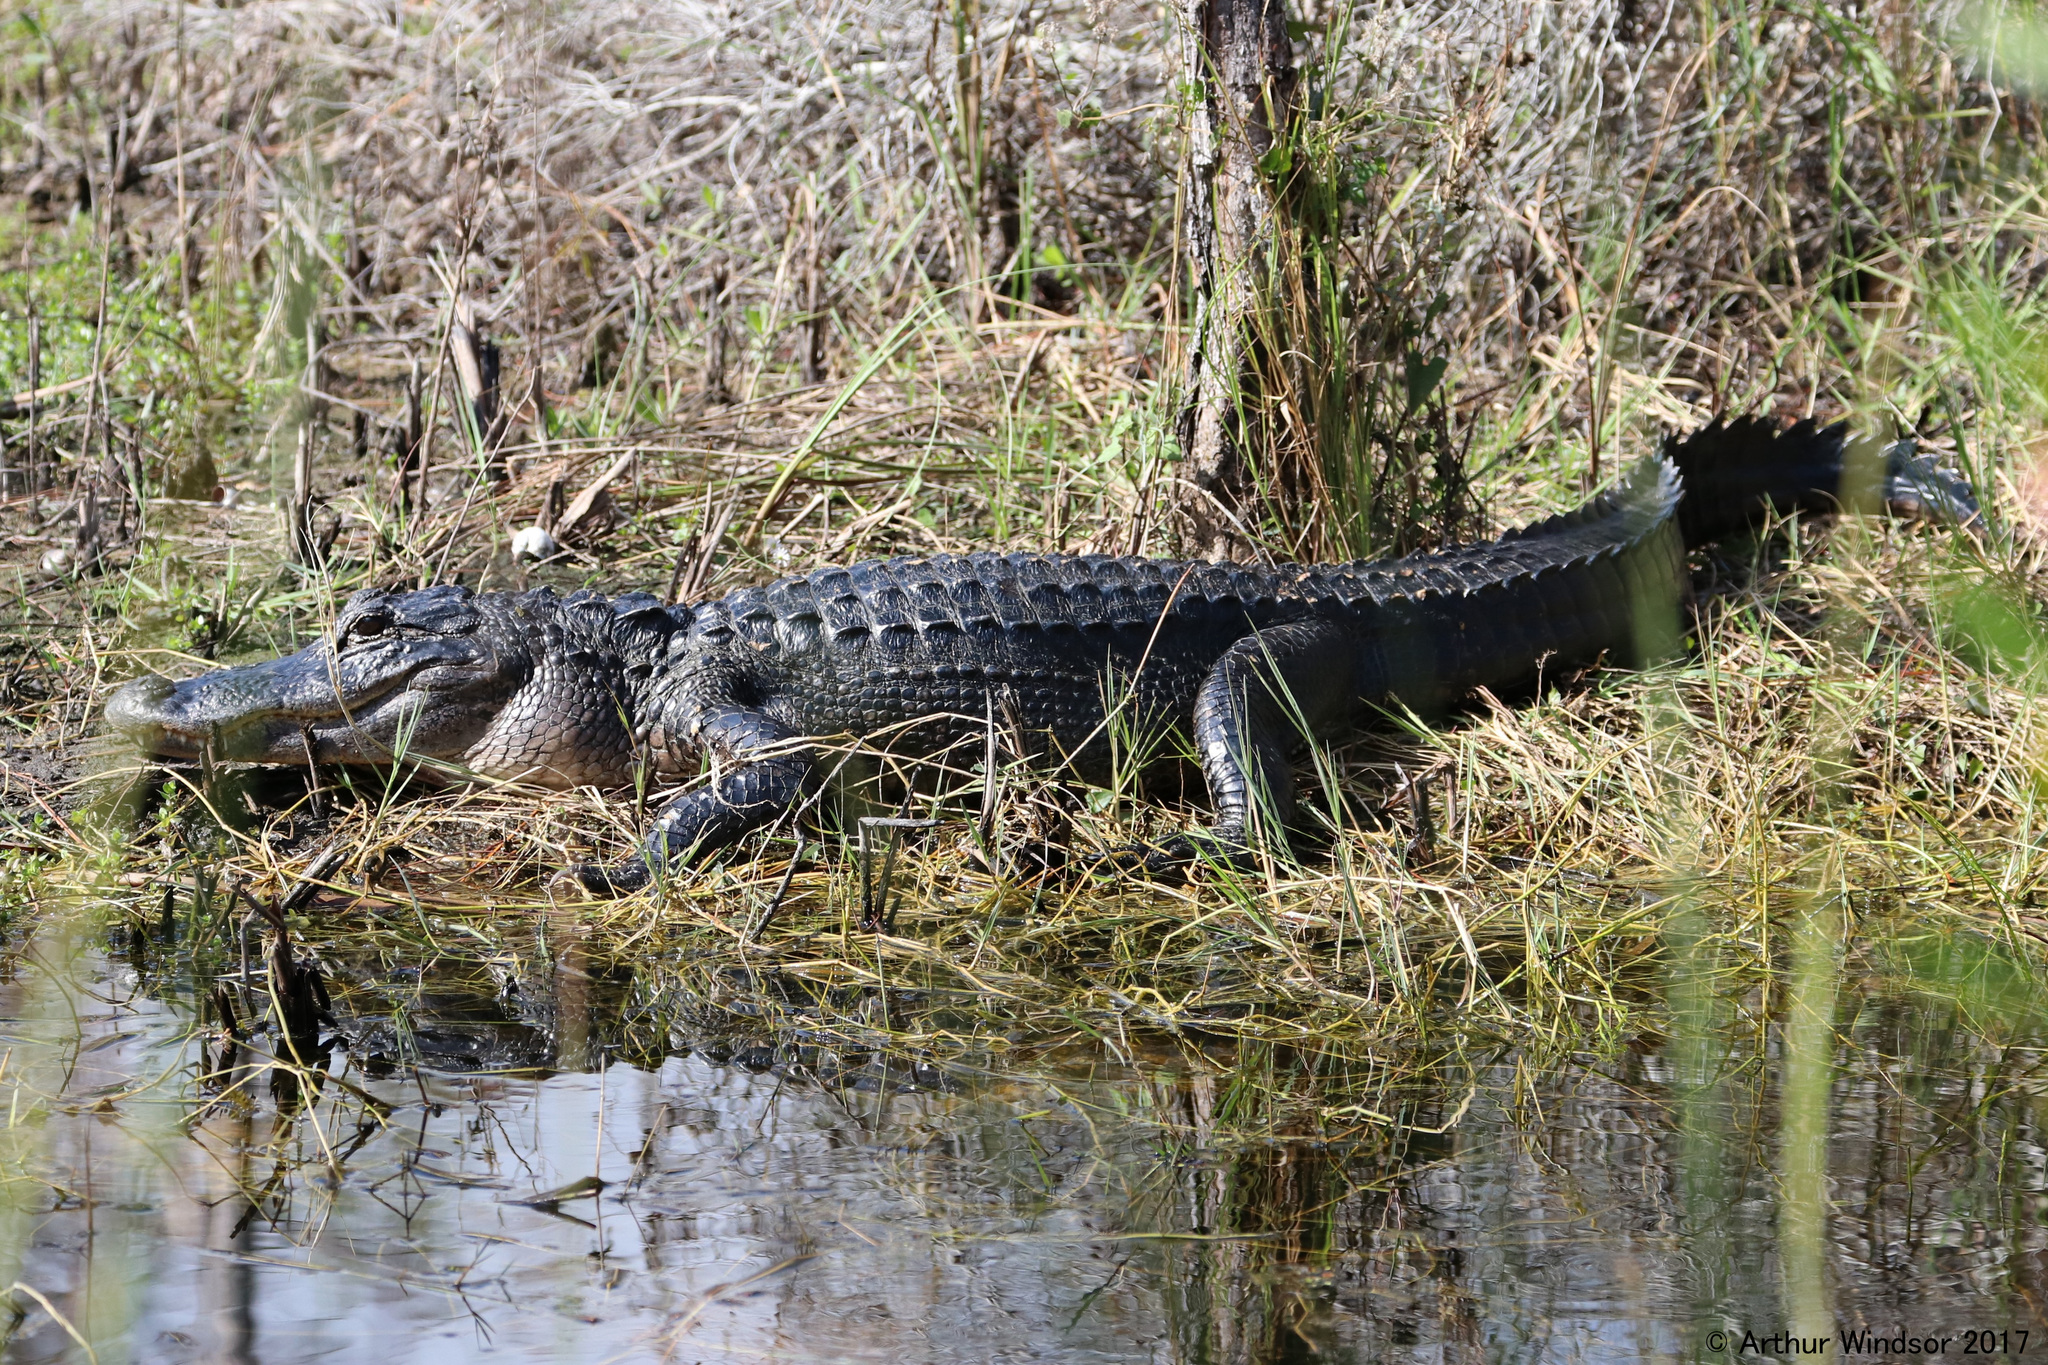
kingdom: Animalia
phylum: Chordata
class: Crocodylia
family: Alligatoridae
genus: Alligator
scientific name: Alligator mississippiensis
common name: American alligator
